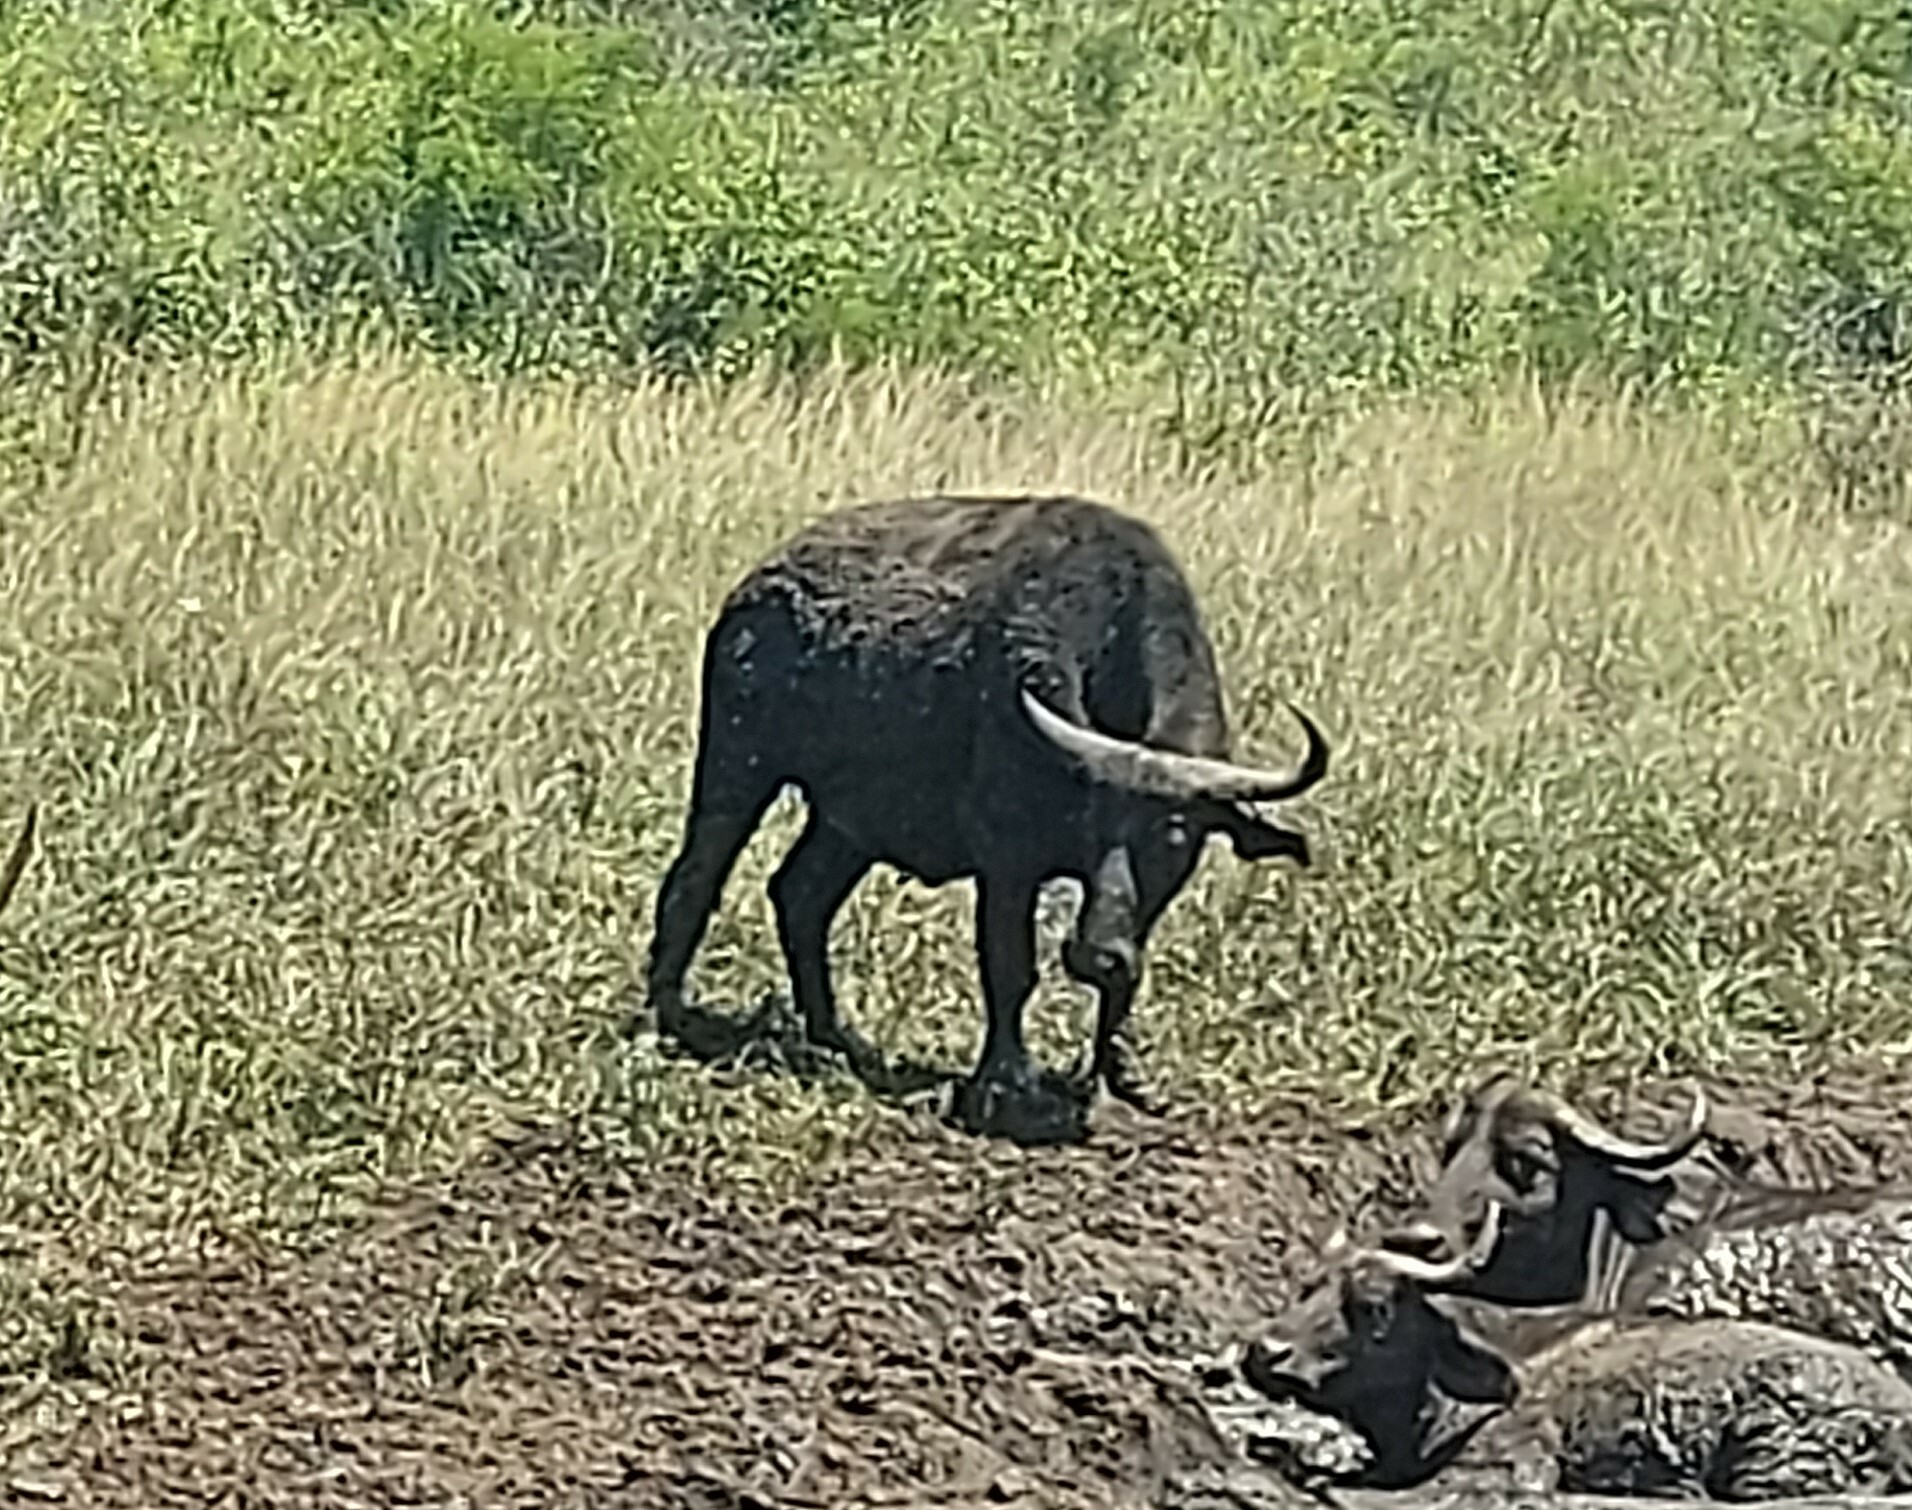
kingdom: Animalia
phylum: Chordata
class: Mammalia
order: Artiodactyla
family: Bovidae
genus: Syncerus
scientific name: Syncerus caffer
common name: African buffalo
